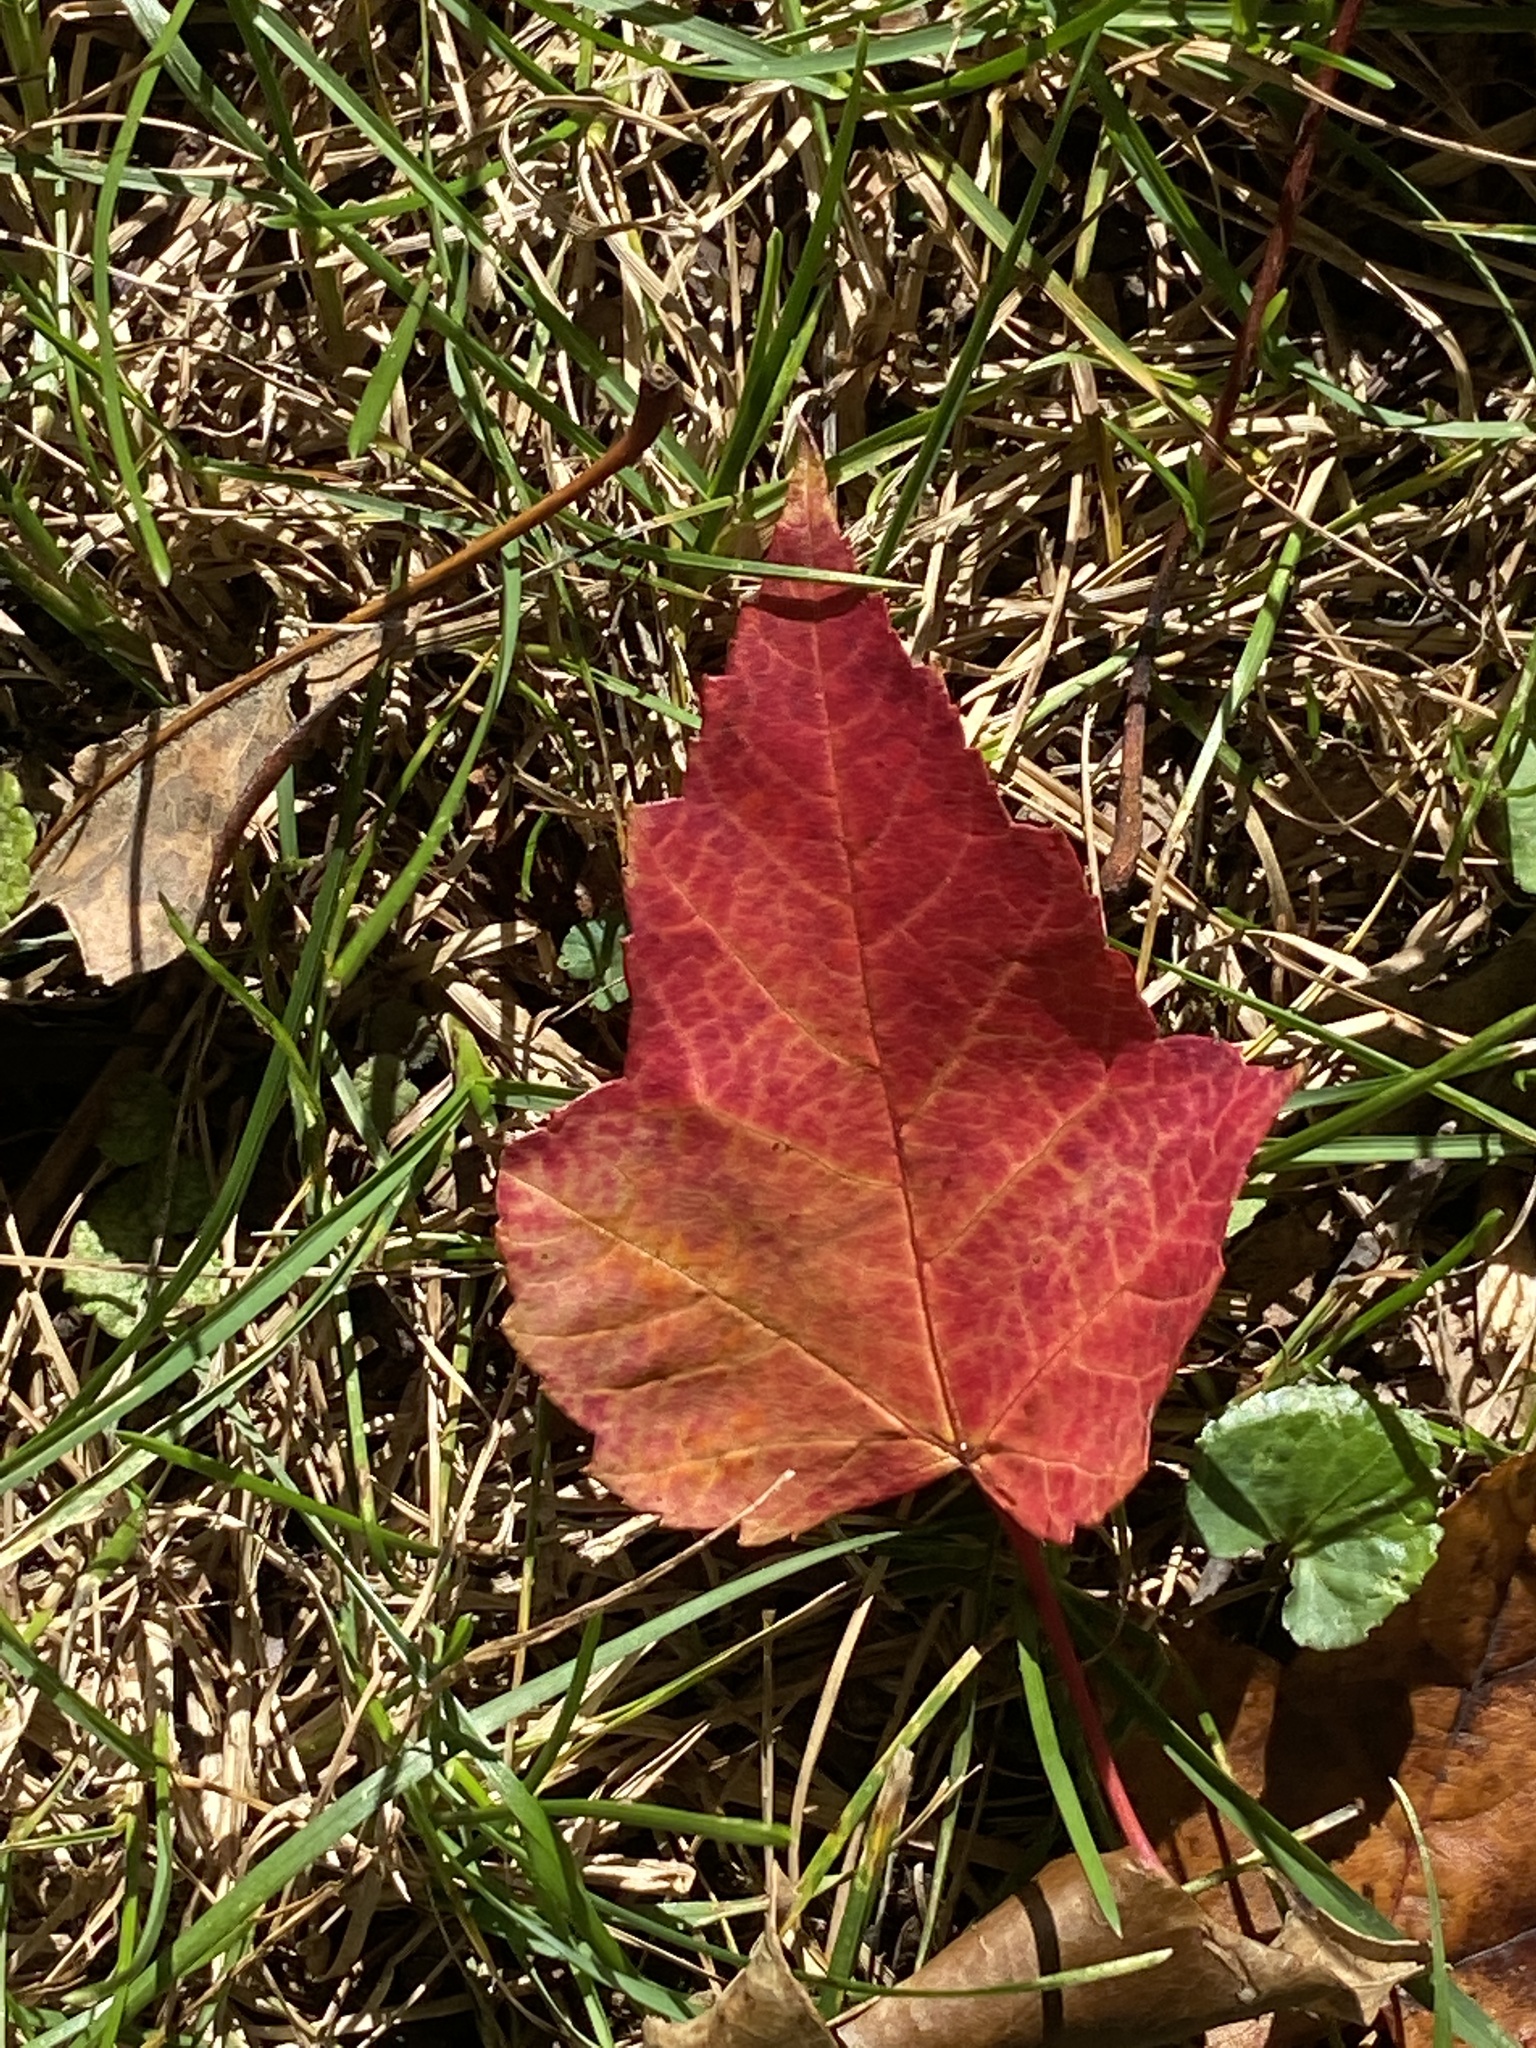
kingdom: Plantae
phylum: Tracheophyta
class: Magnoliopsida
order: Sapindales
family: Sapindaceae
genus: Acer
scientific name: Acer rubrum
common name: Red maple
